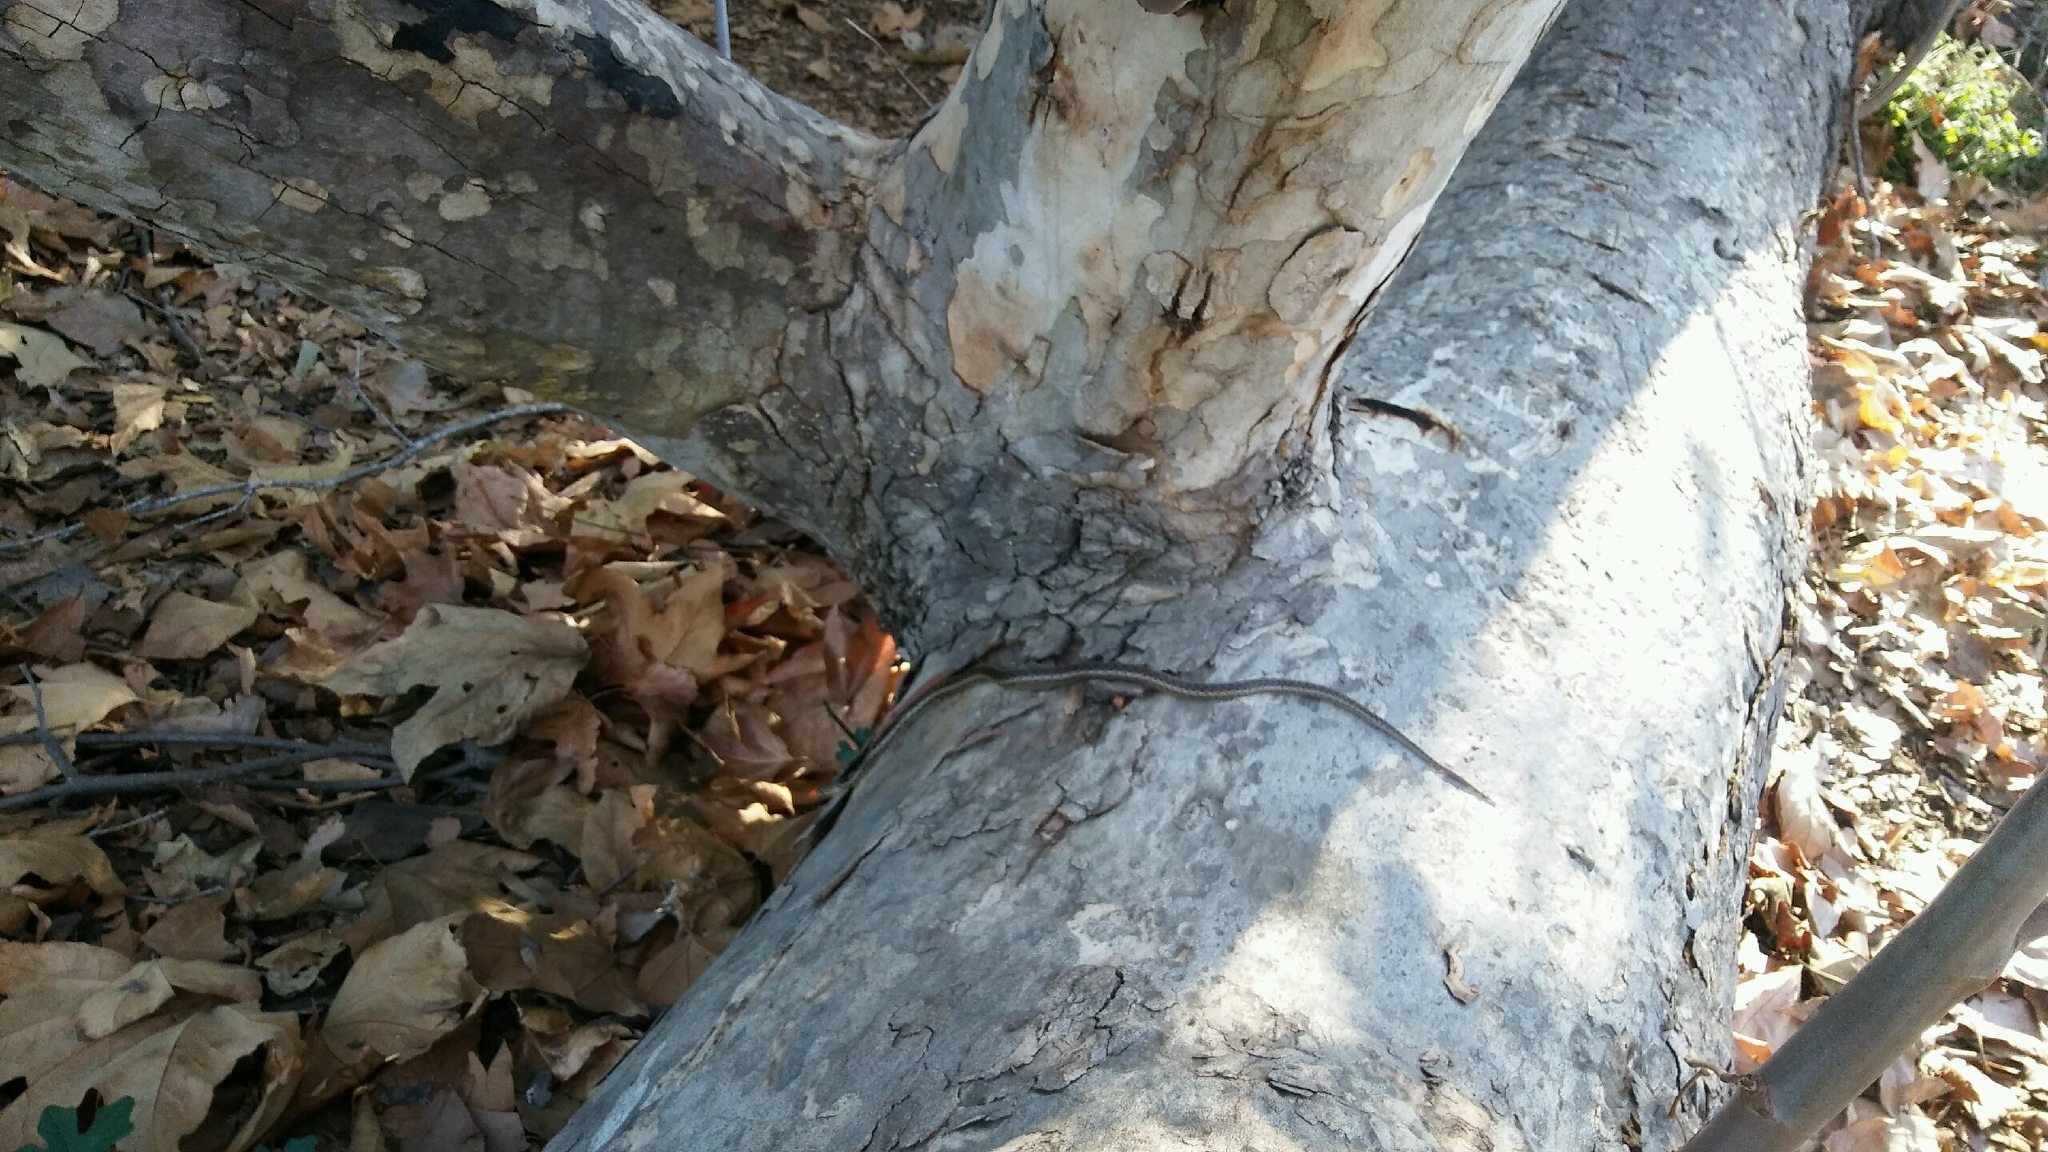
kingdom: Animalia
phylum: Chordata
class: Squamata
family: Colubridae
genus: Pituophis
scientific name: Pituophis catenifer
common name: Gopher snake
